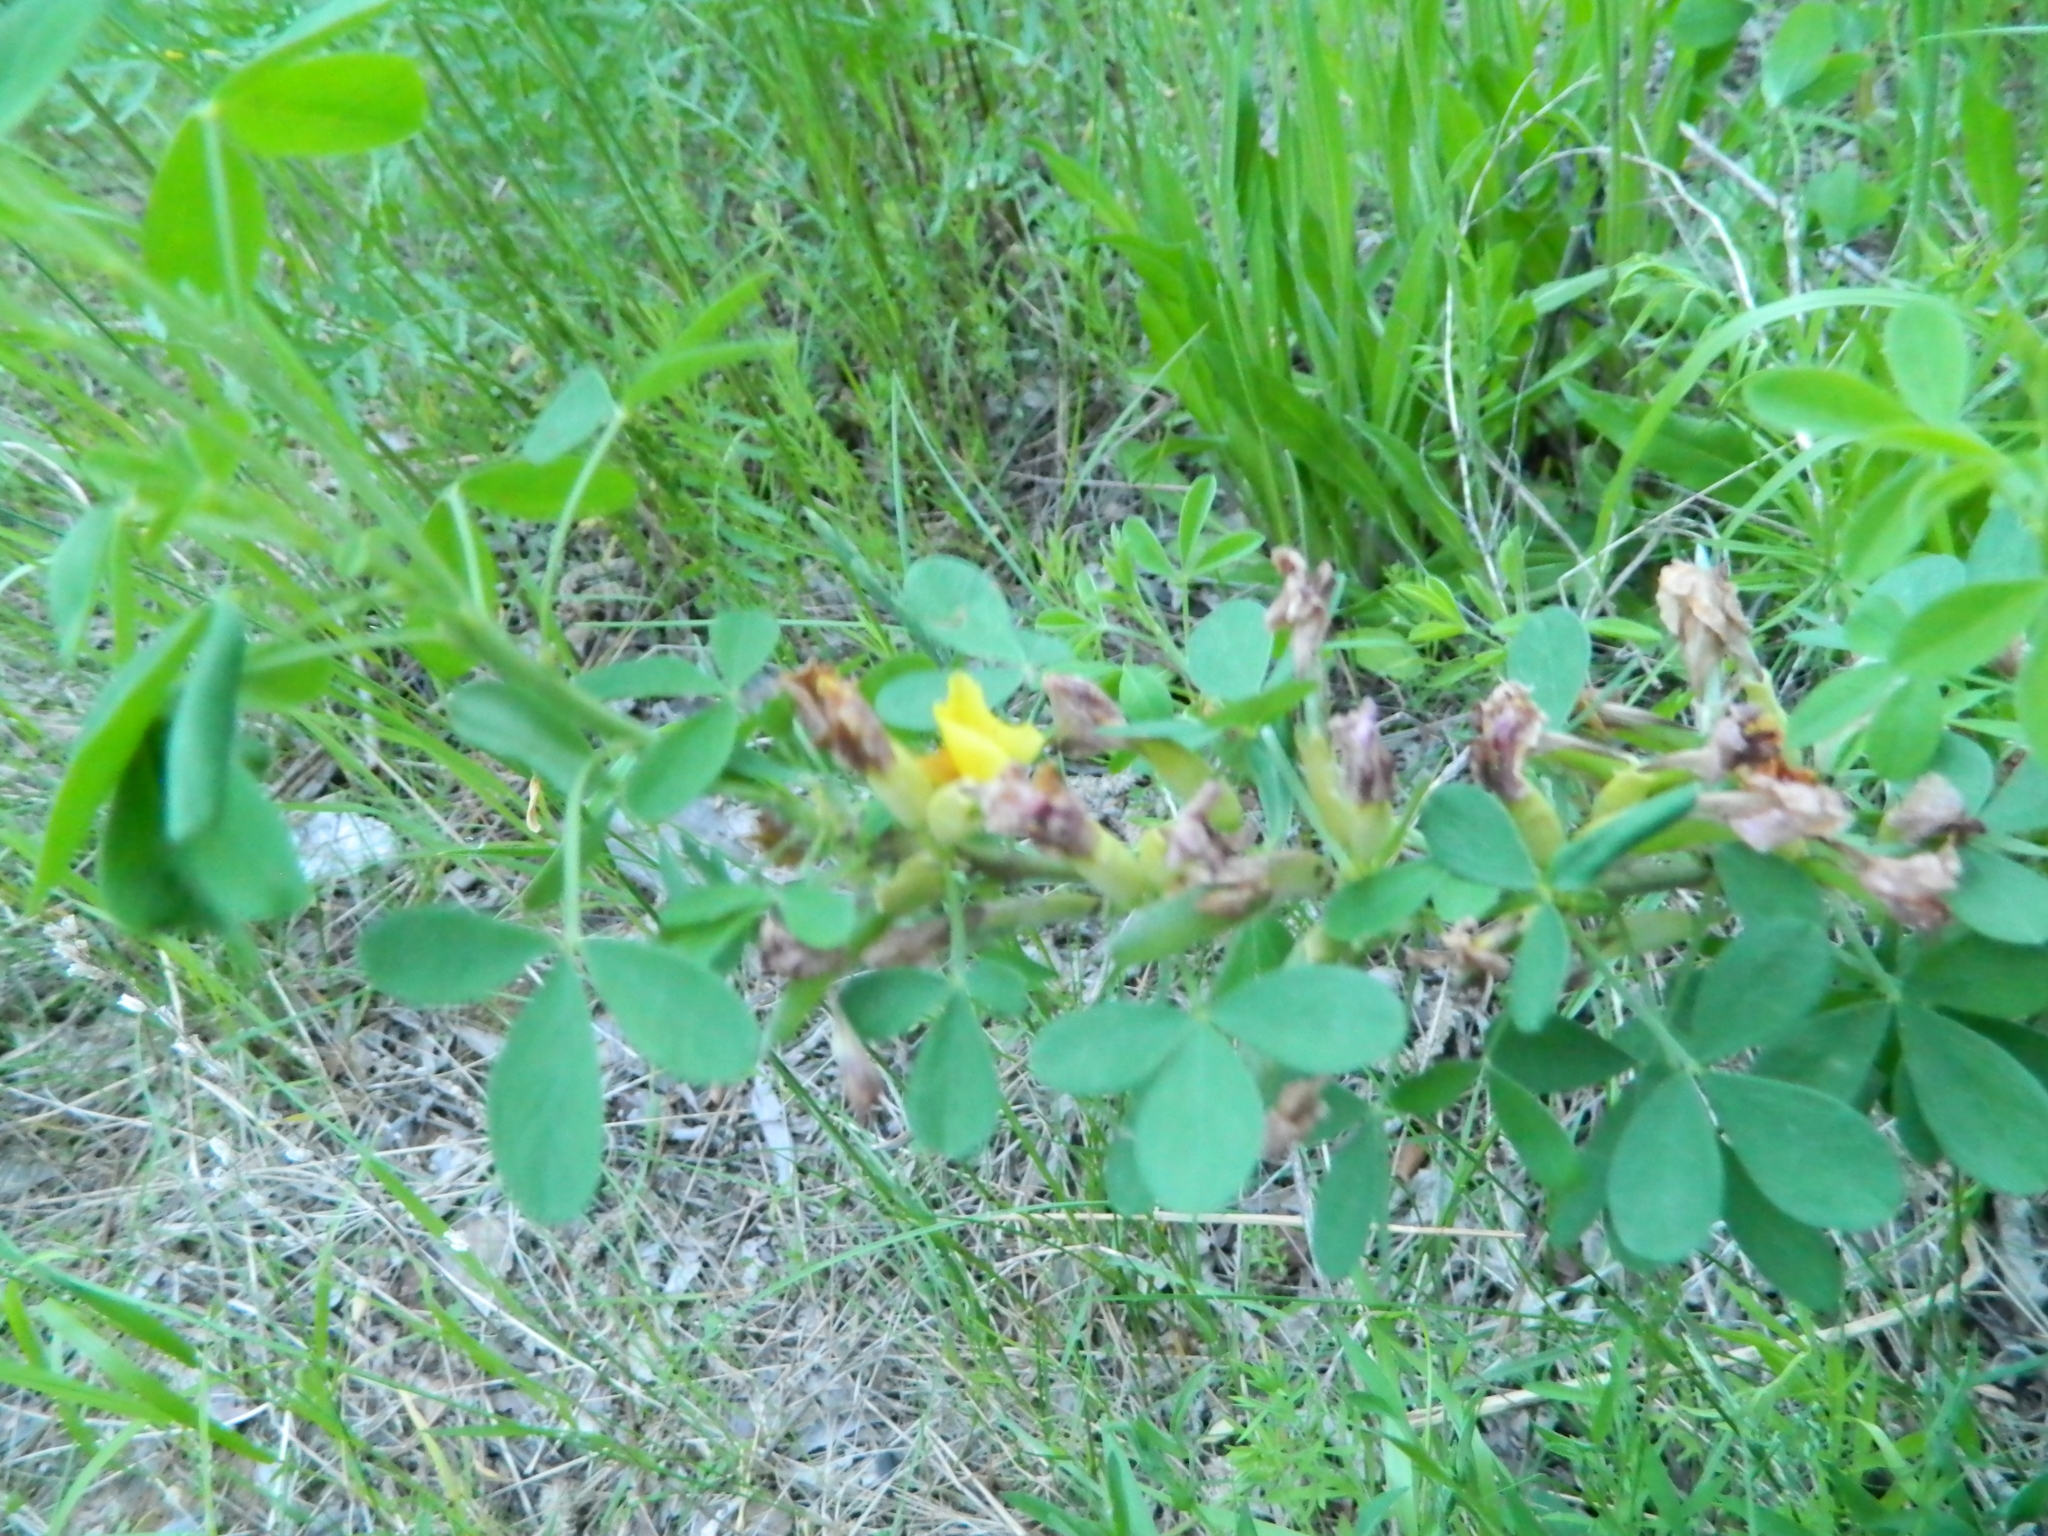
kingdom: Plantae
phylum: Tracheophyta
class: Magnoliopsida
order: Fabales
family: Fabaceae
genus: Chamaecytisus
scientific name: Chamaecytisus ruthenicus
